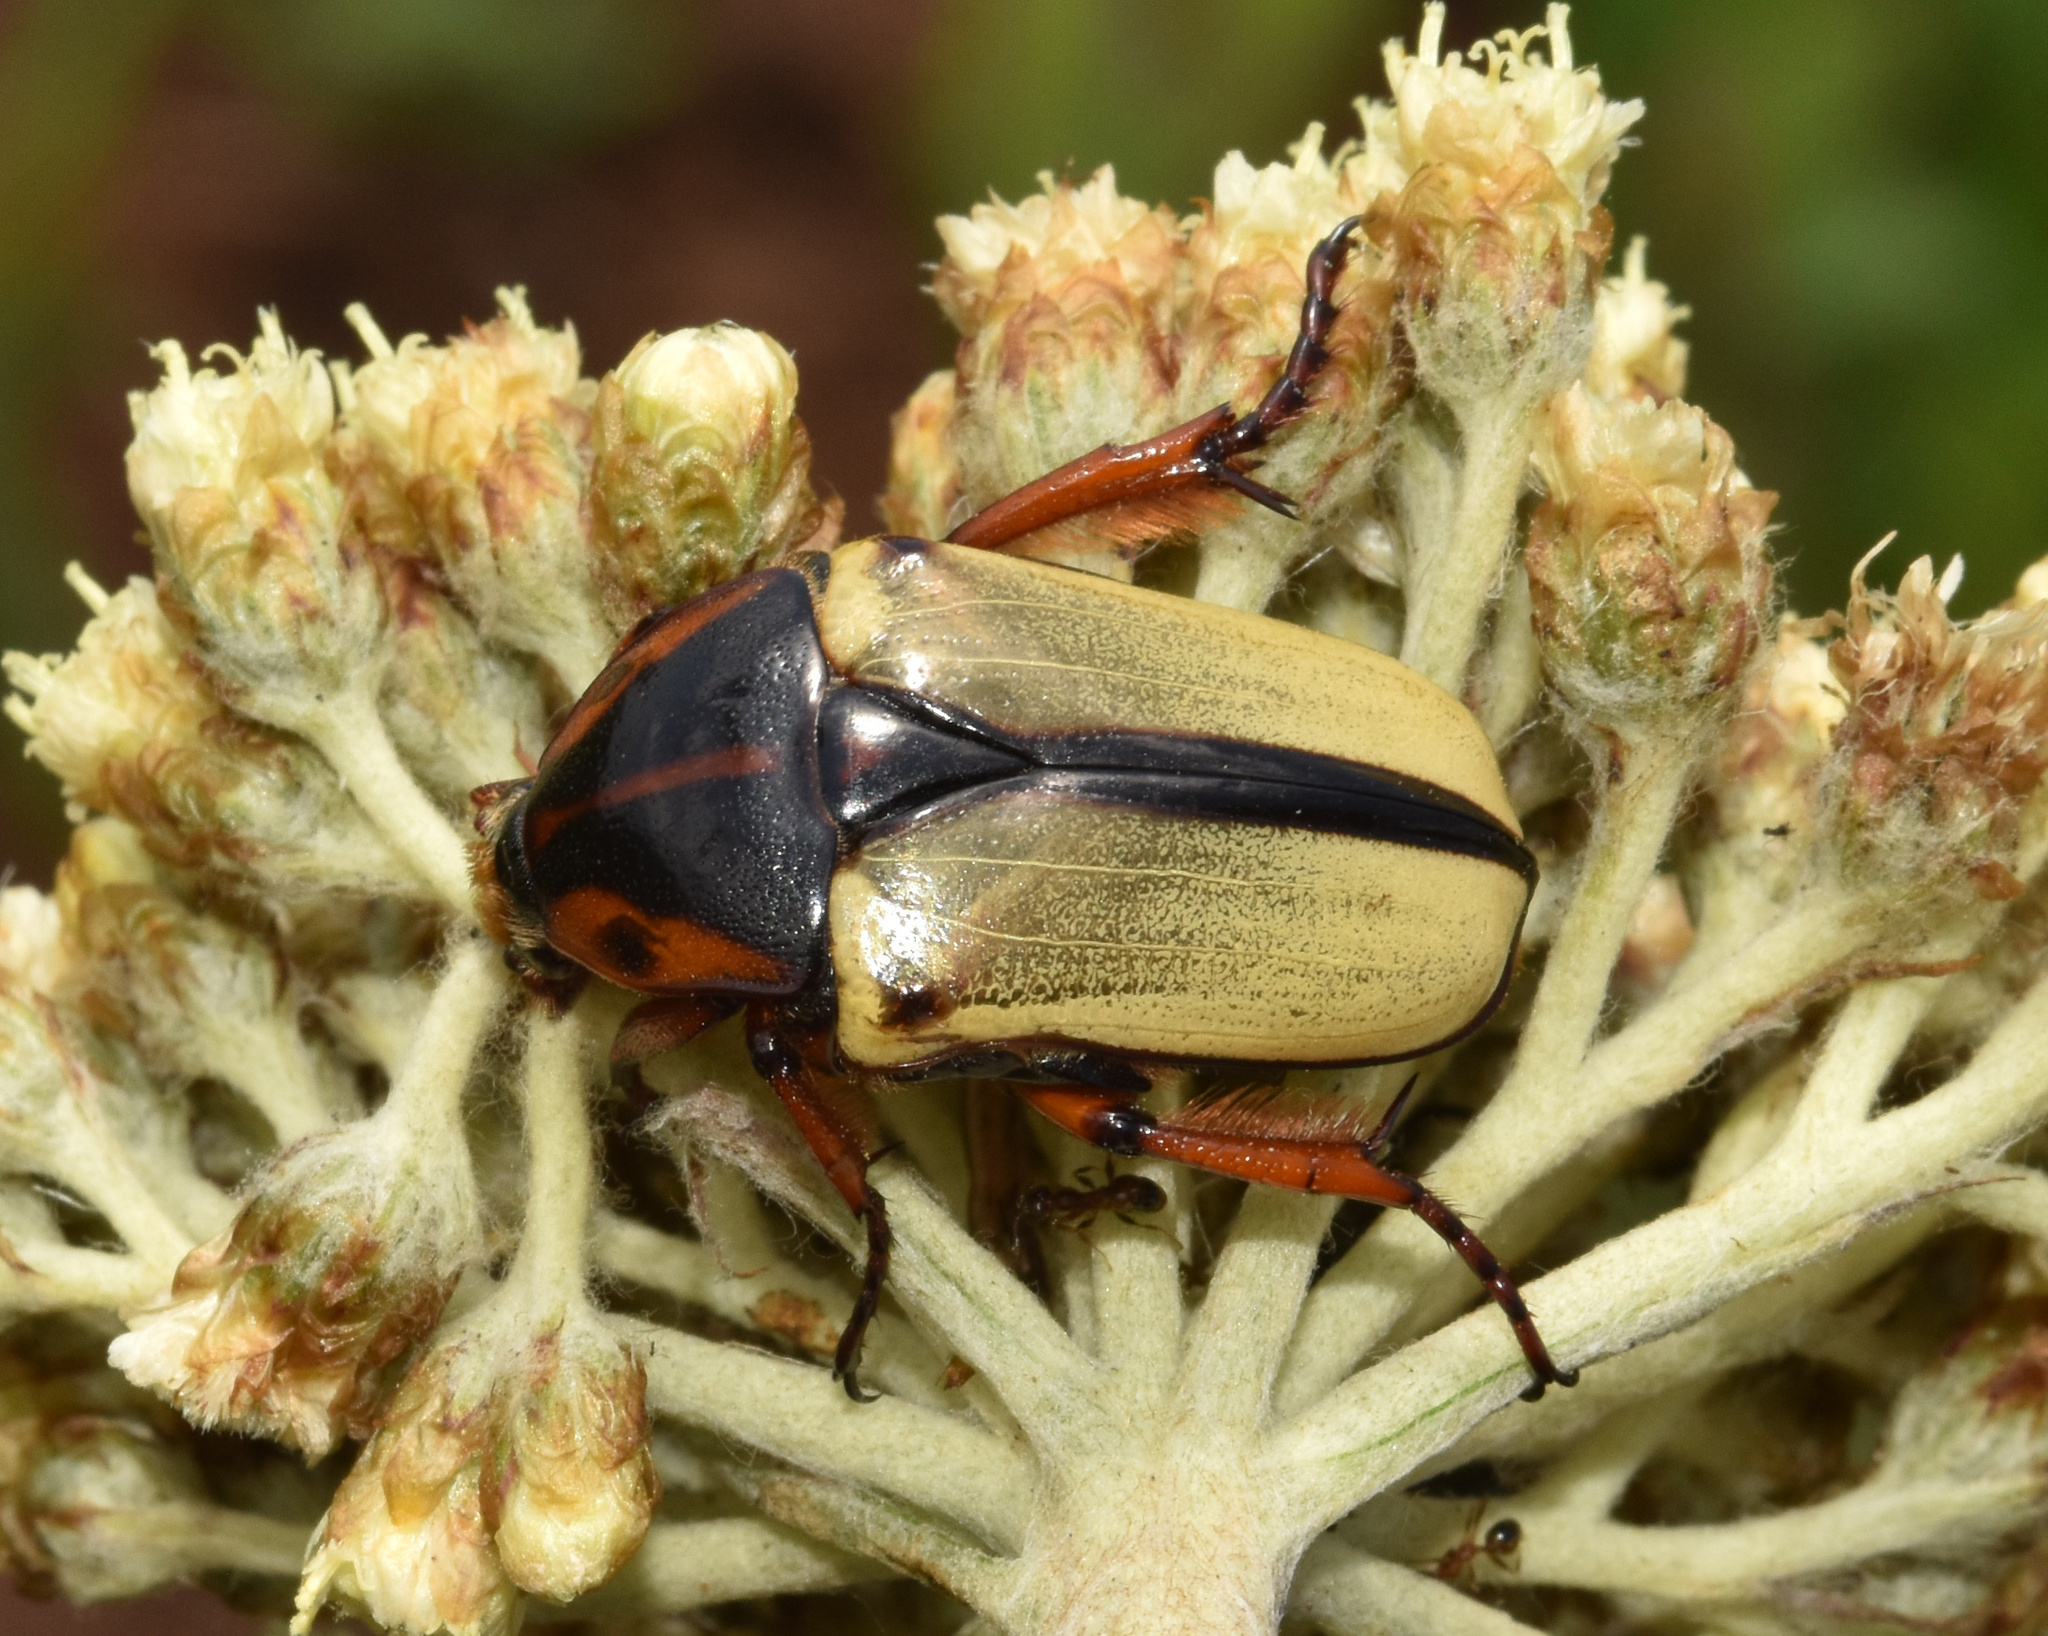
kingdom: Animalia
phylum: Arthropoda
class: Insecta
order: Coleoptera
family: Scarabaeidae
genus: Anisorrhina
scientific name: Anisorrhina umbonata
